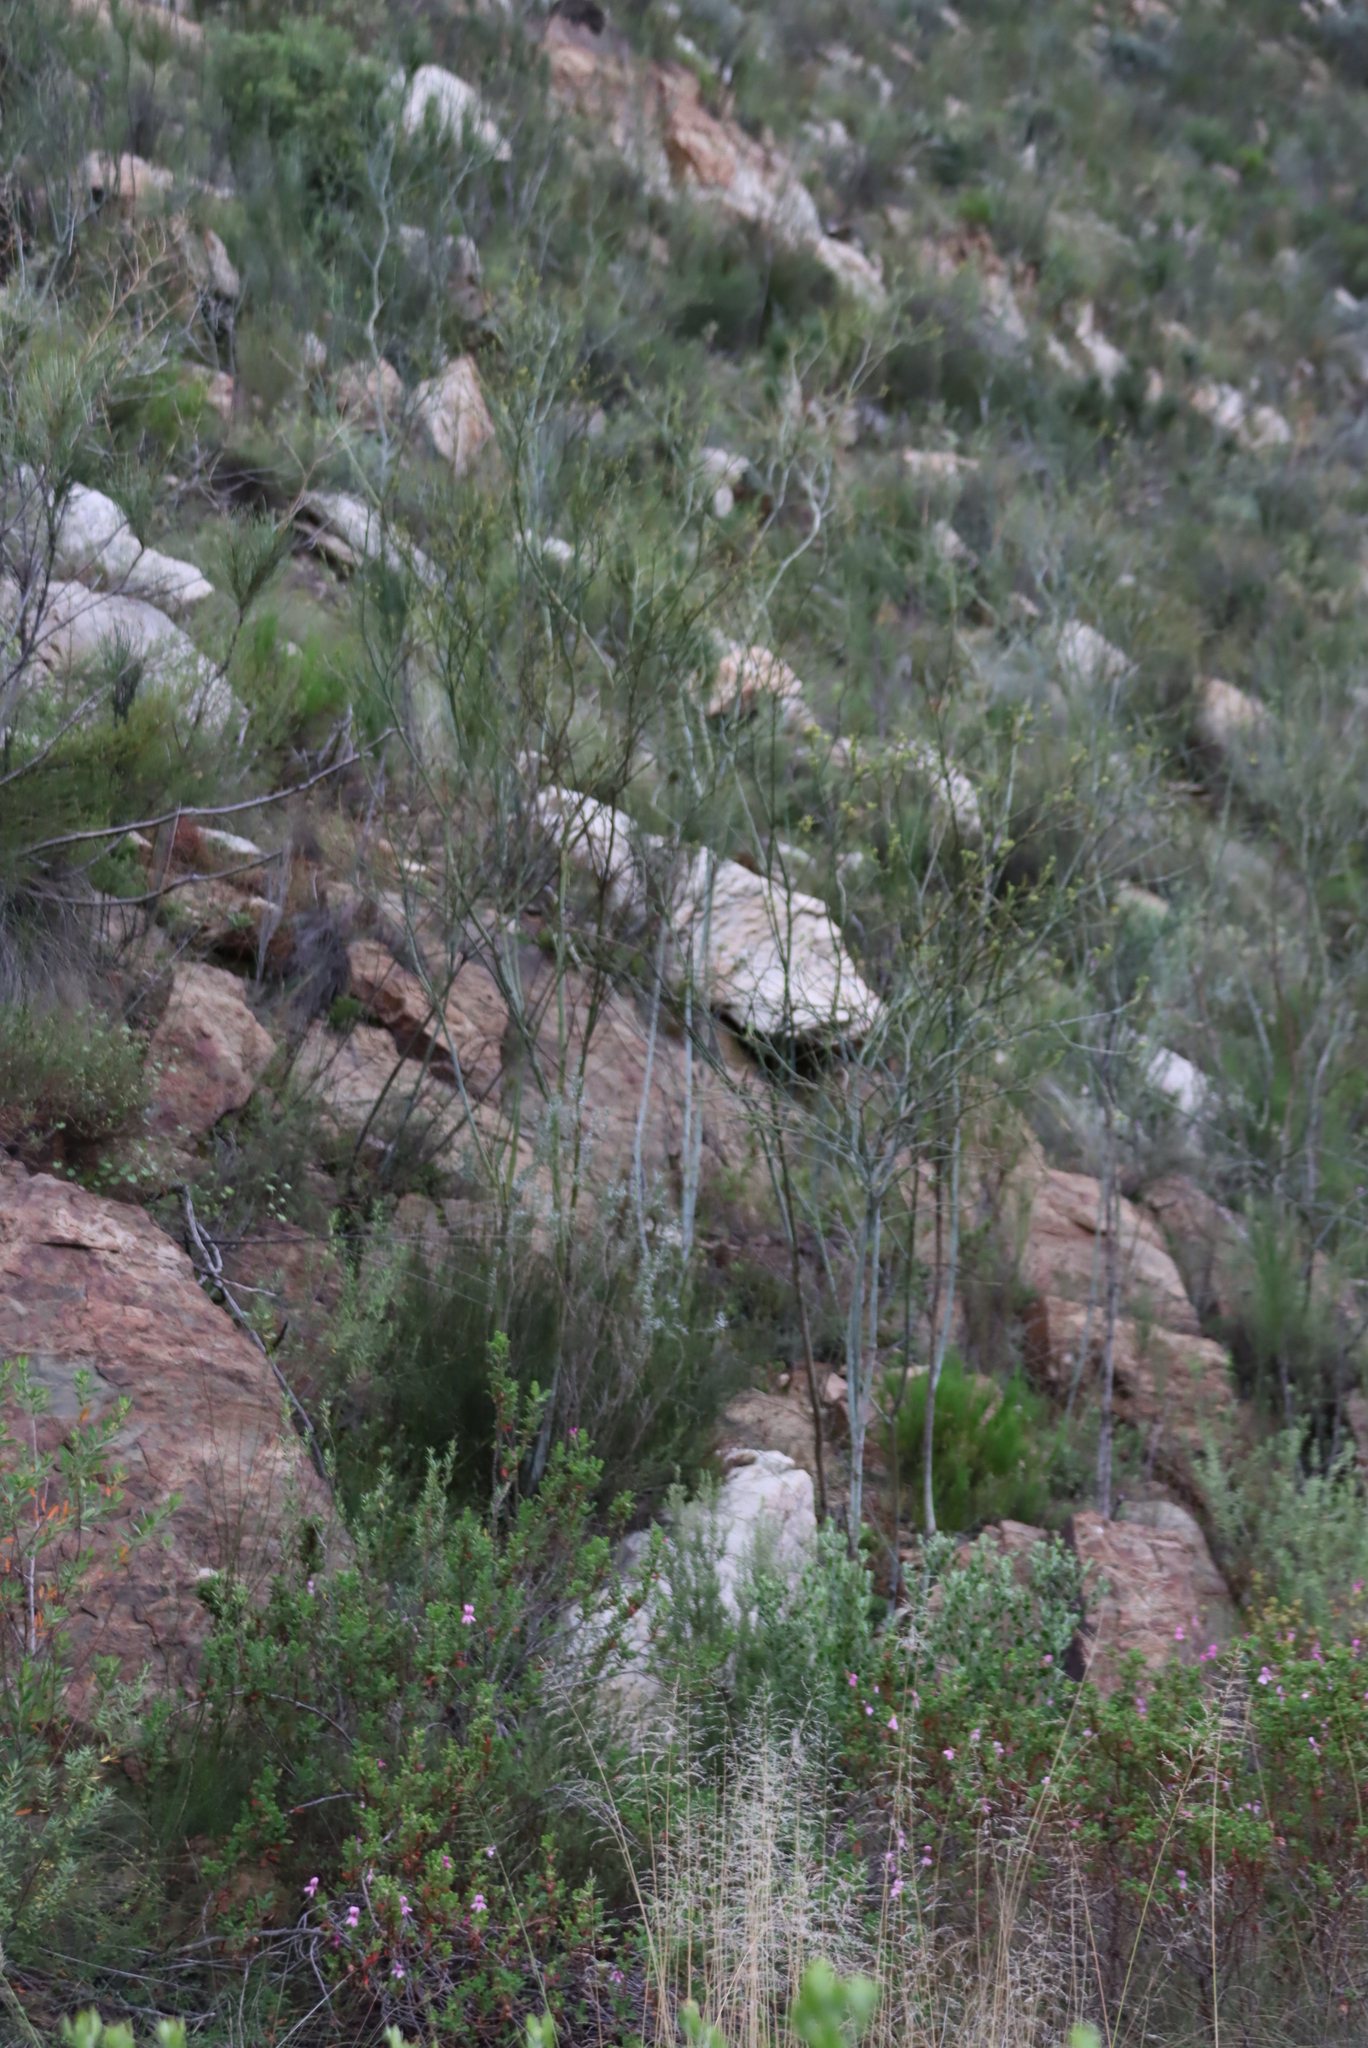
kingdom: Plantae
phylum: Tracheophyta
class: Magnoliopsida
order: Santalales
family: Thesiaceae
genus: Thesium
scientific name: Thesium strictum
